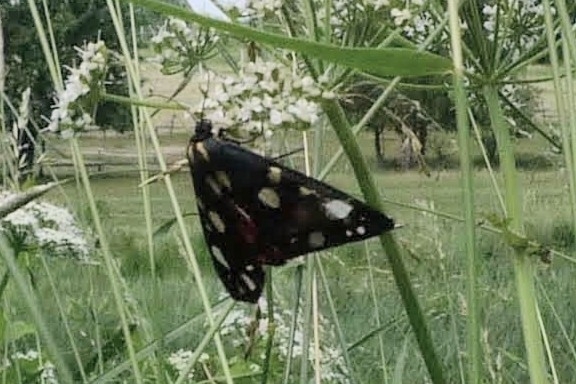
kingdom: Animalia
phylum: Arthropoda
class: Insecta
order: Lepidoptera
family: Erebidae
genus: Callimorpha
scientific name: Callimorpha dominula
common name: Scarlet tiger
